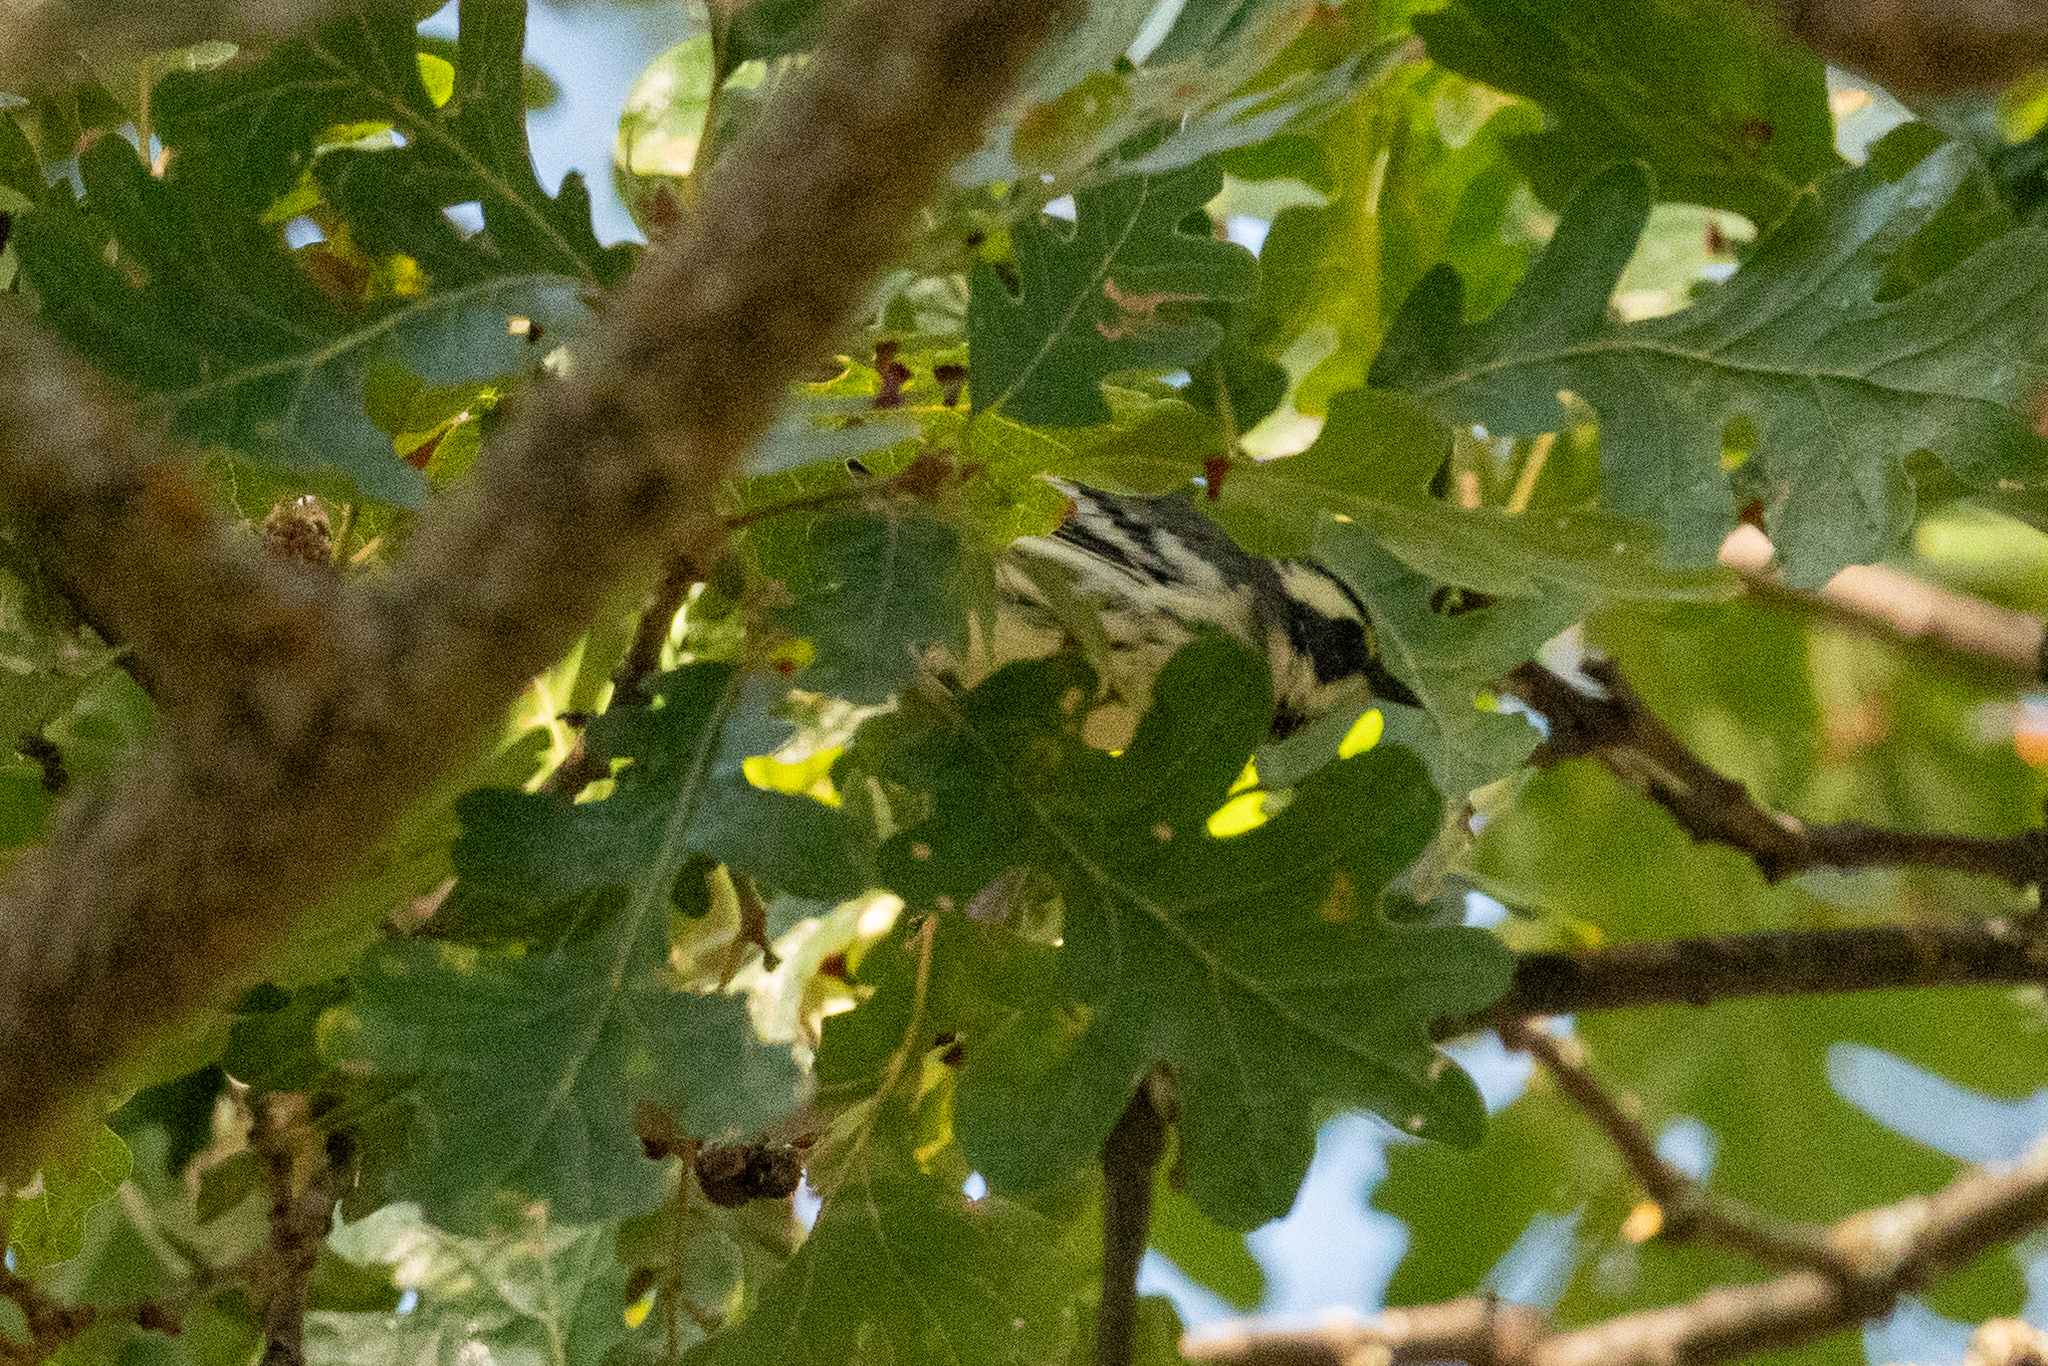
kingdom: Animalia
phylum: Chordata
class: Aves
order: Passeriformes
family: Parulidae
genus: Setophaga
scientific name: Setophaga nigrescens
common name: Black-throated gray warbler
